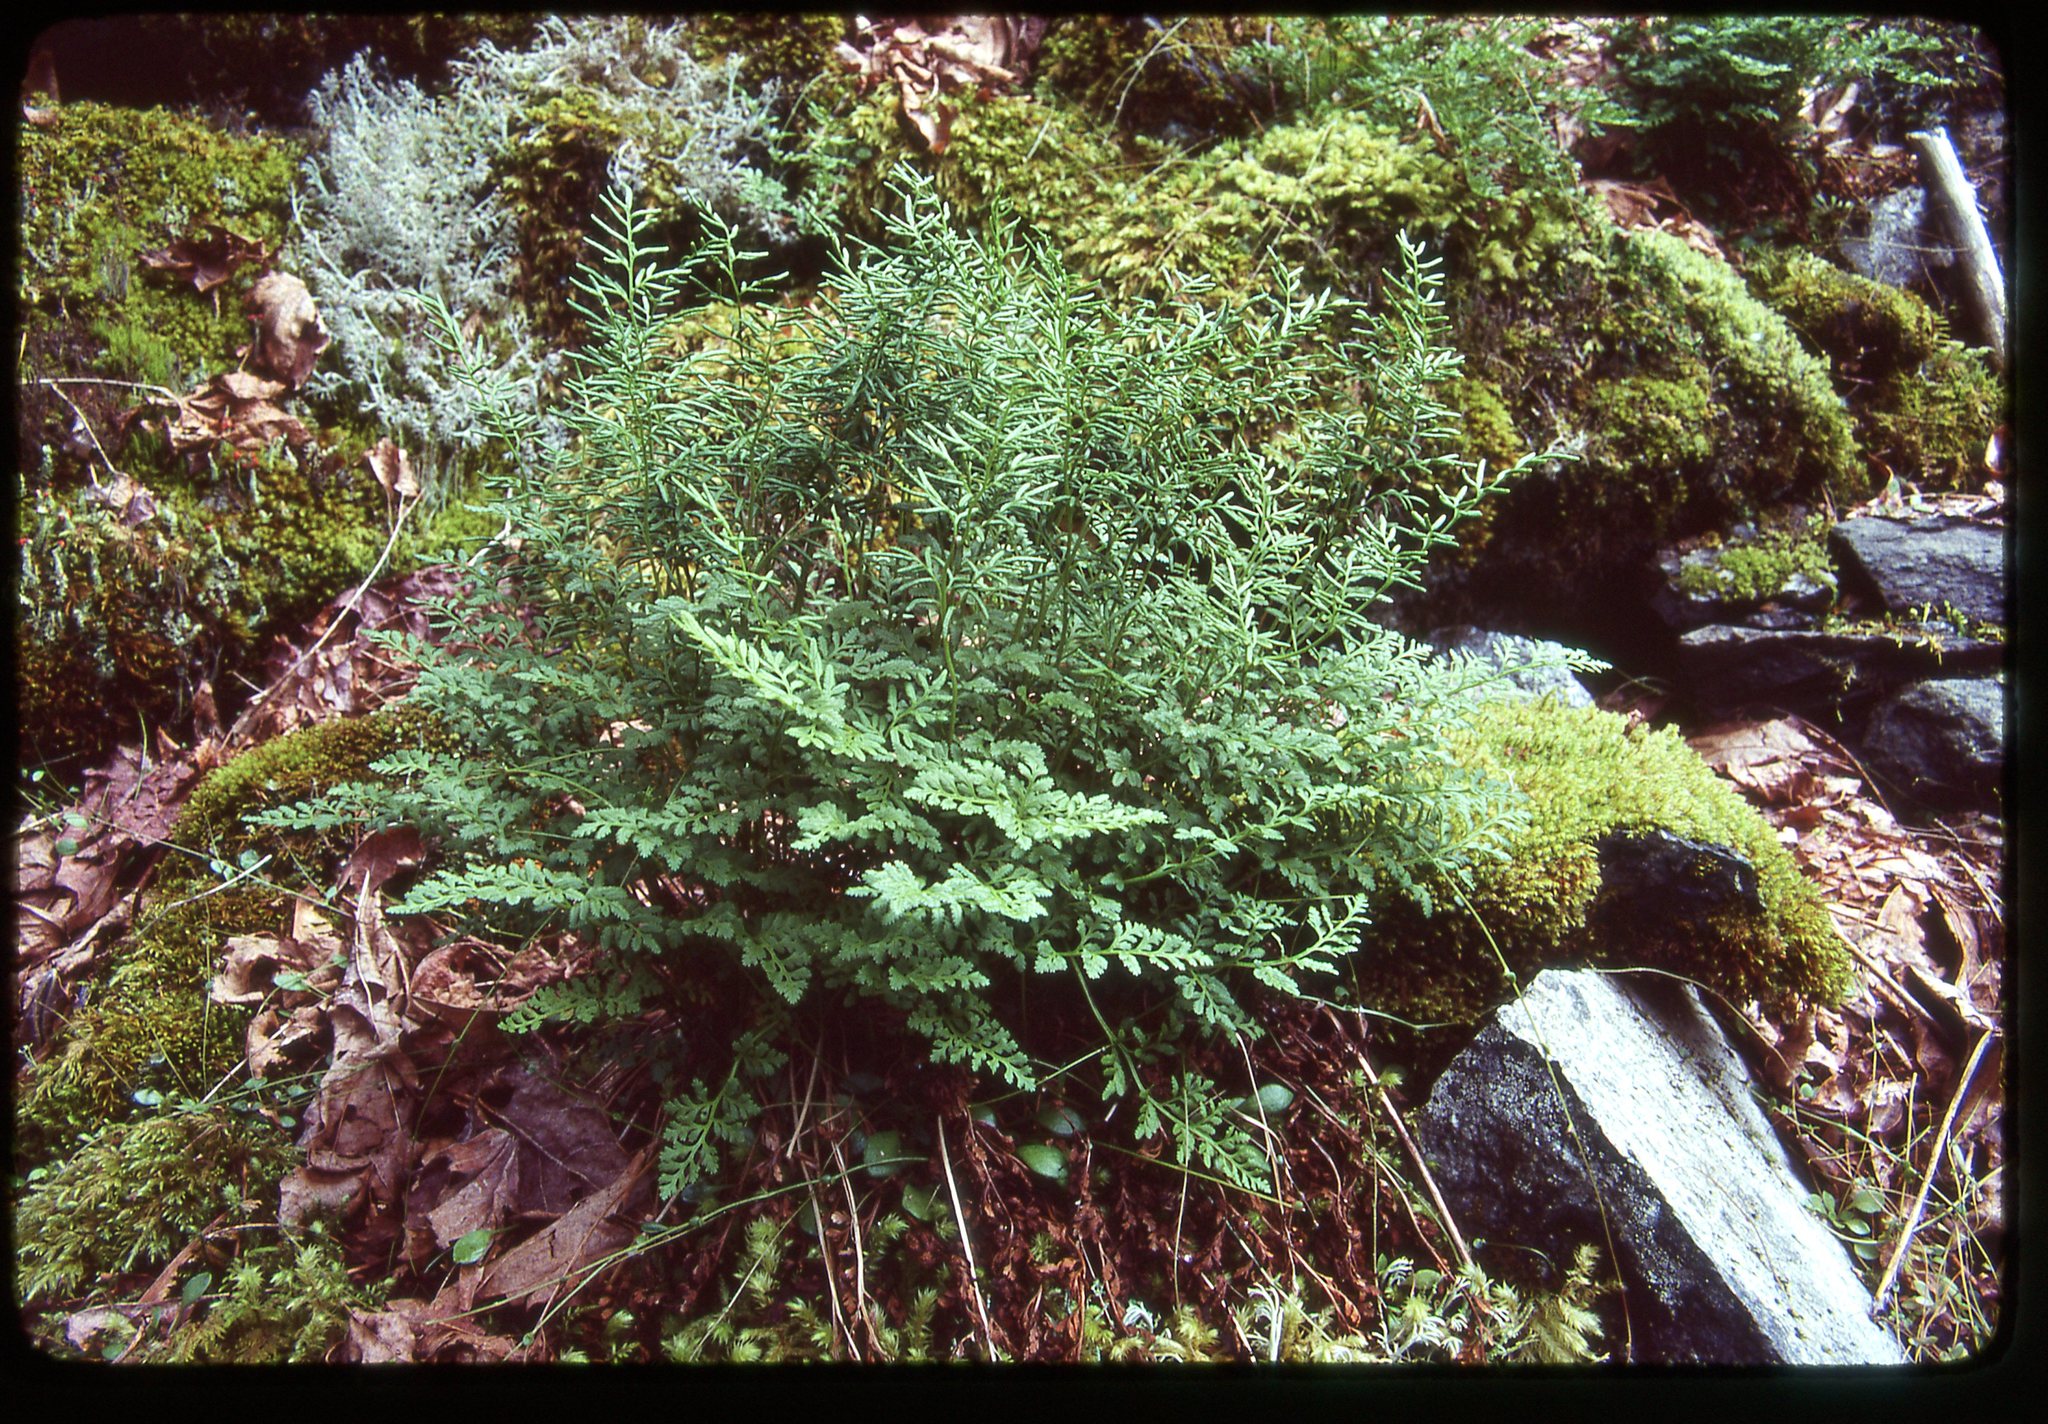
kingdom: Plantae
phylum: Tracheophyta
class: Polypodiopsida
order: Polypodiales
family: Pteridaceae
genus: Cryptogramma
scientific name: Cryptogramma acrostichoides
